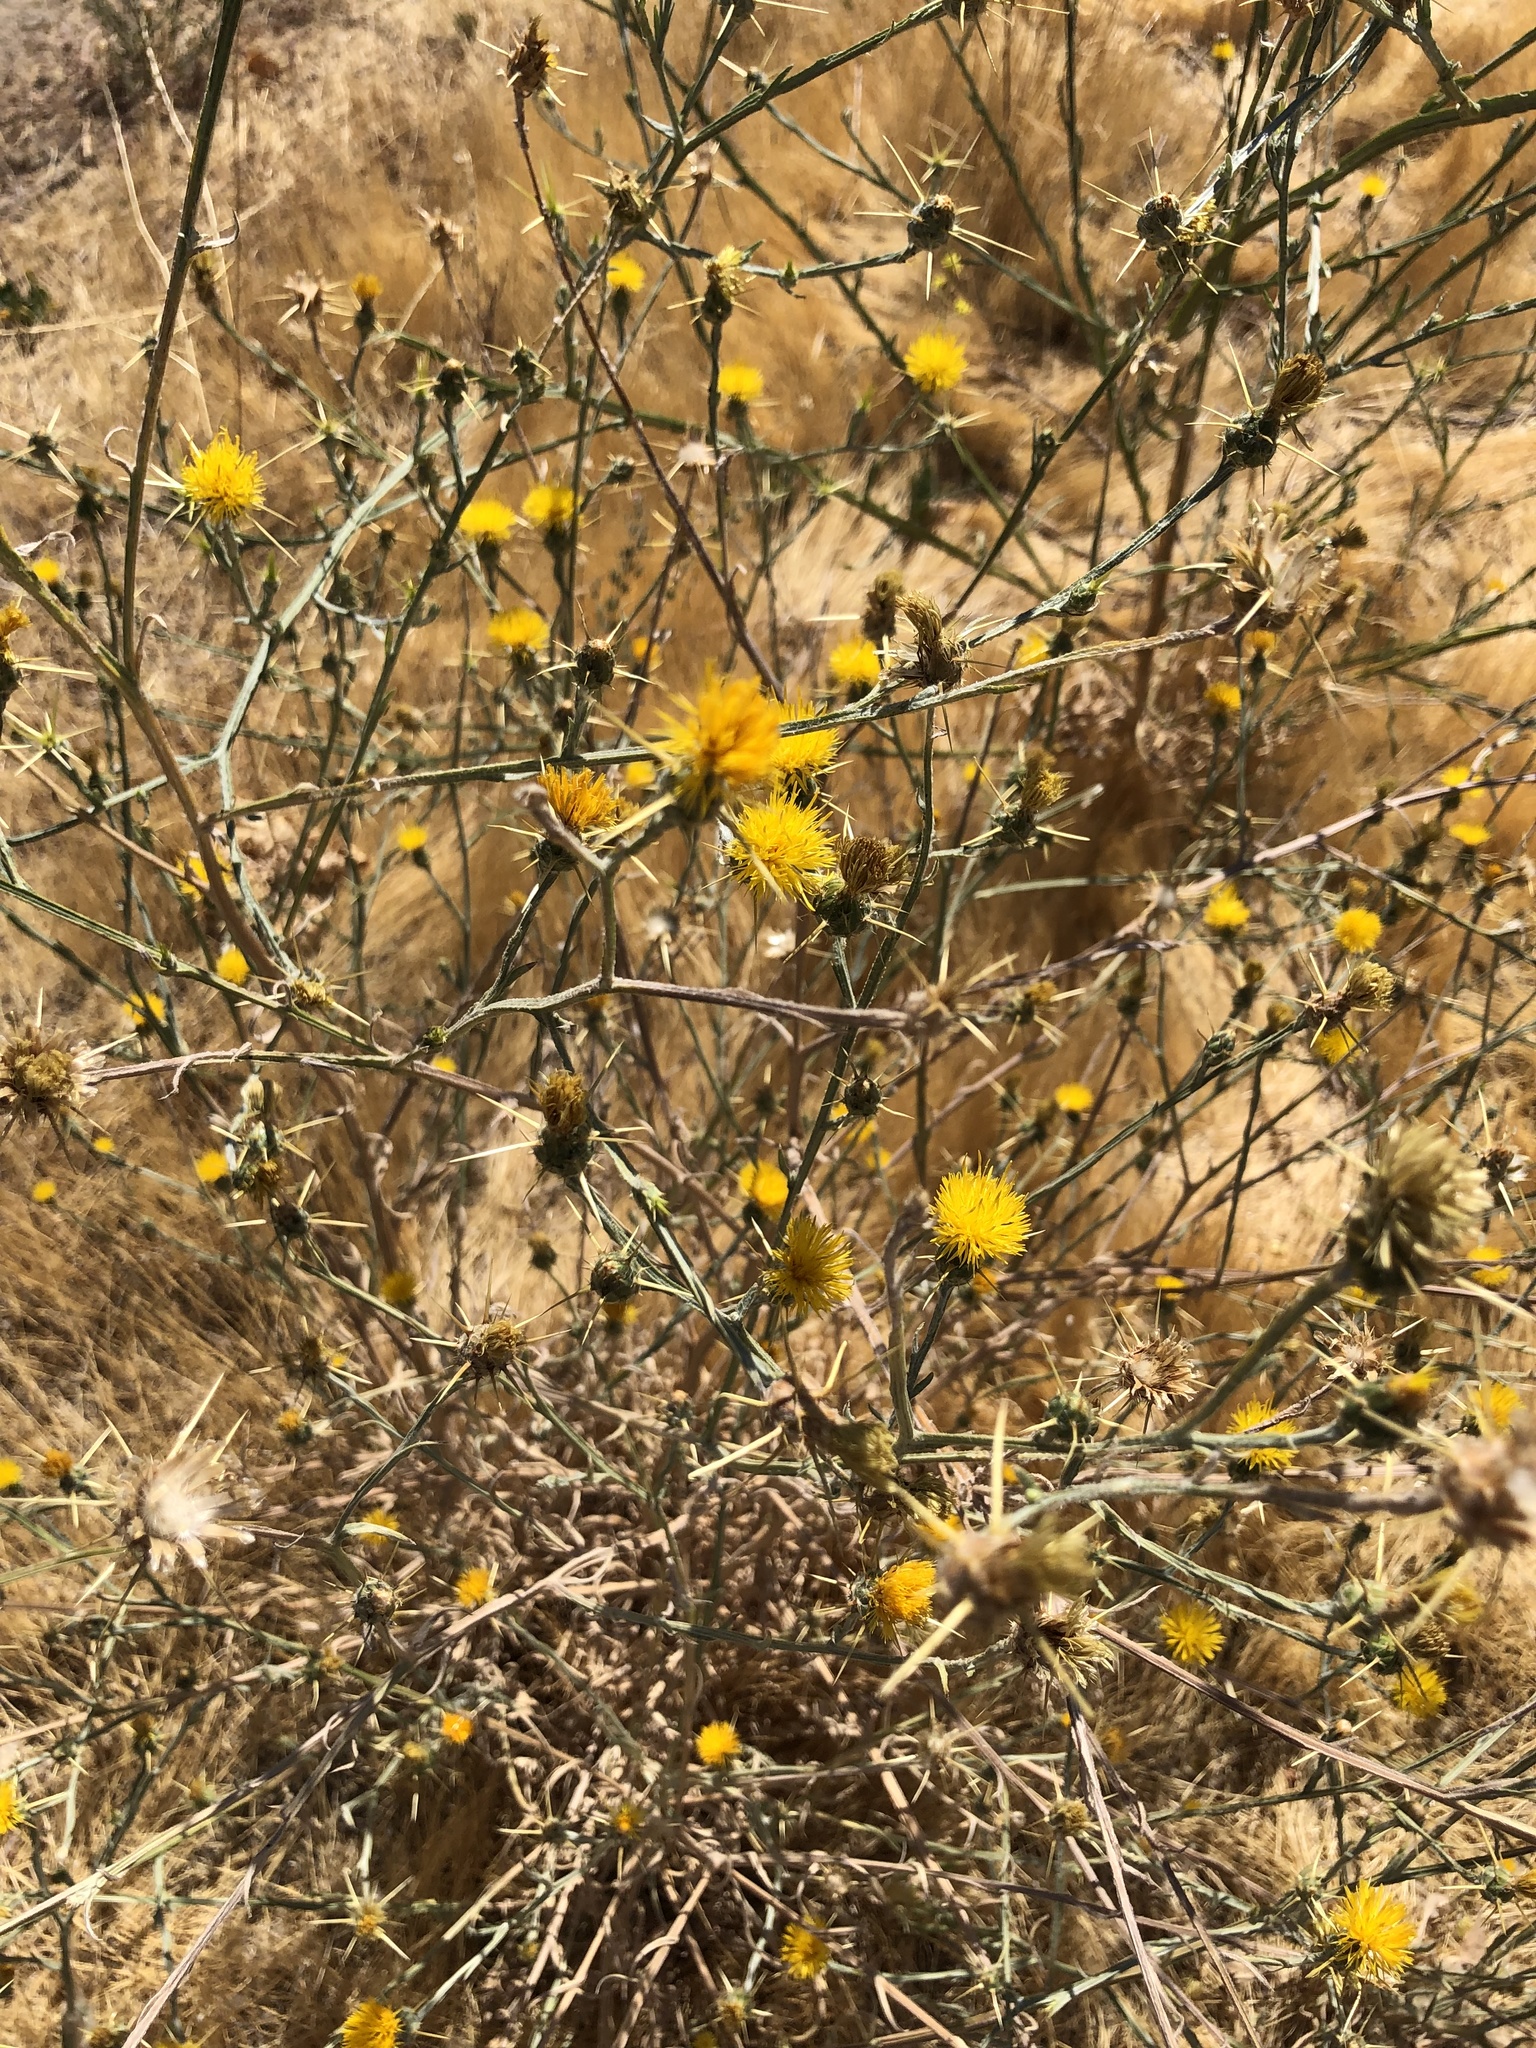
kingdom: Plantae
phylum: Tracheophyta
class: Magnoliopsida
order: Asterales
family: Asteraceae
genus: Centaurea
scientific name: Centaurea solstitialis
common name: Yellow star-thistle
